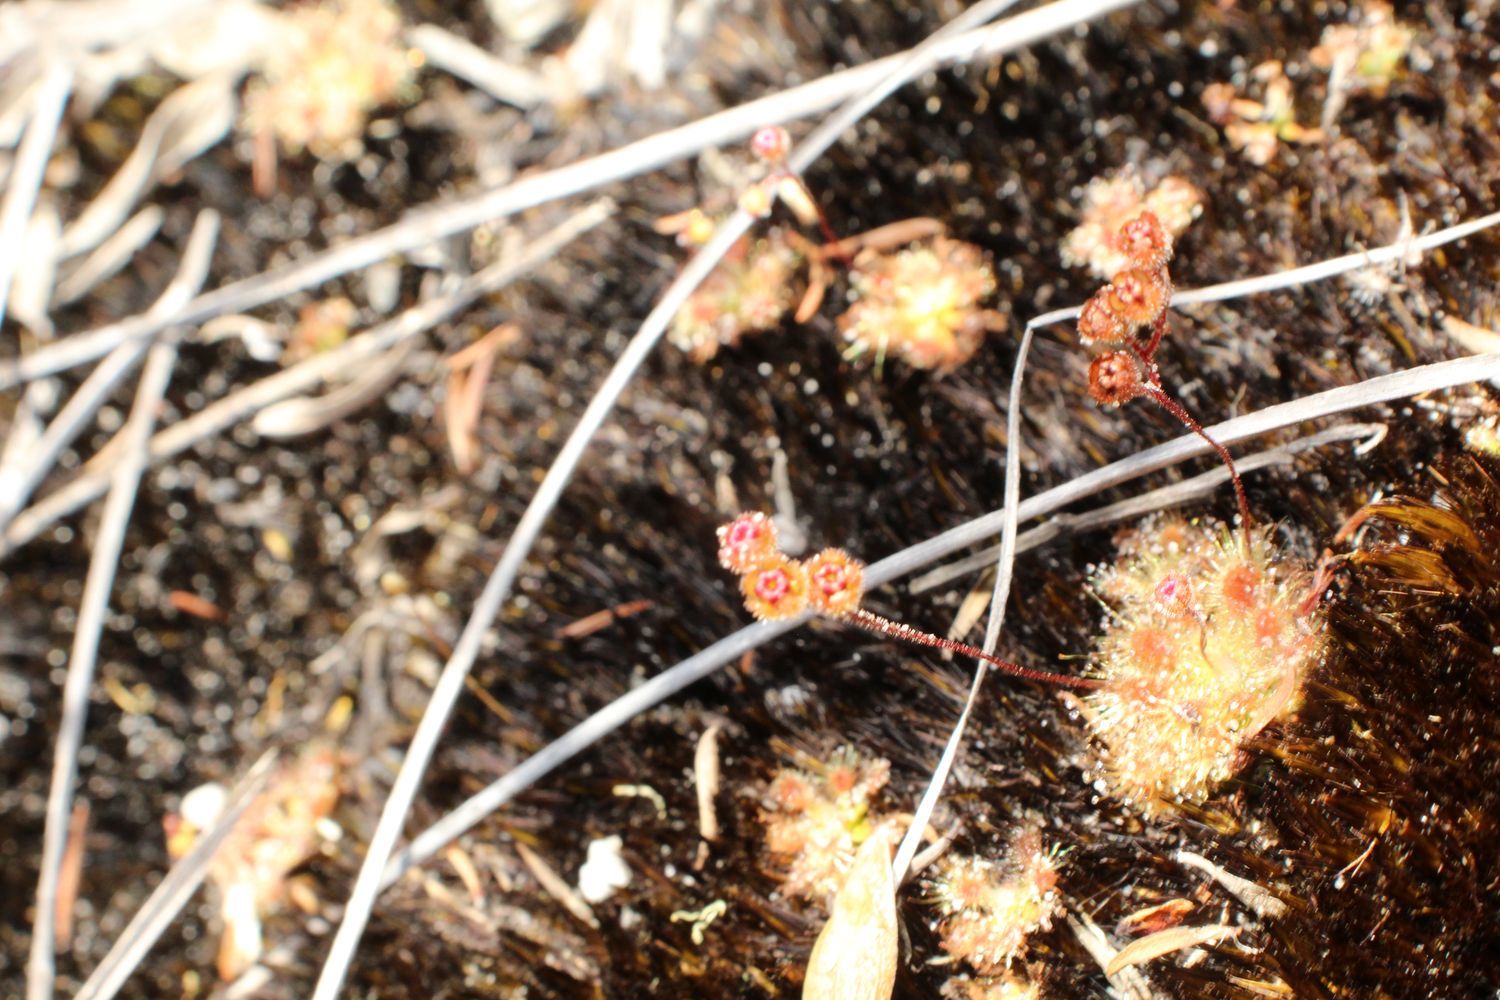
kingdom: Plantae
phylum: Tracheophyta
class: Magnoliopsida
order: Caryophyllales
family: Droseraceae
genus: Drosera
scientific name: Drosera pulchella
